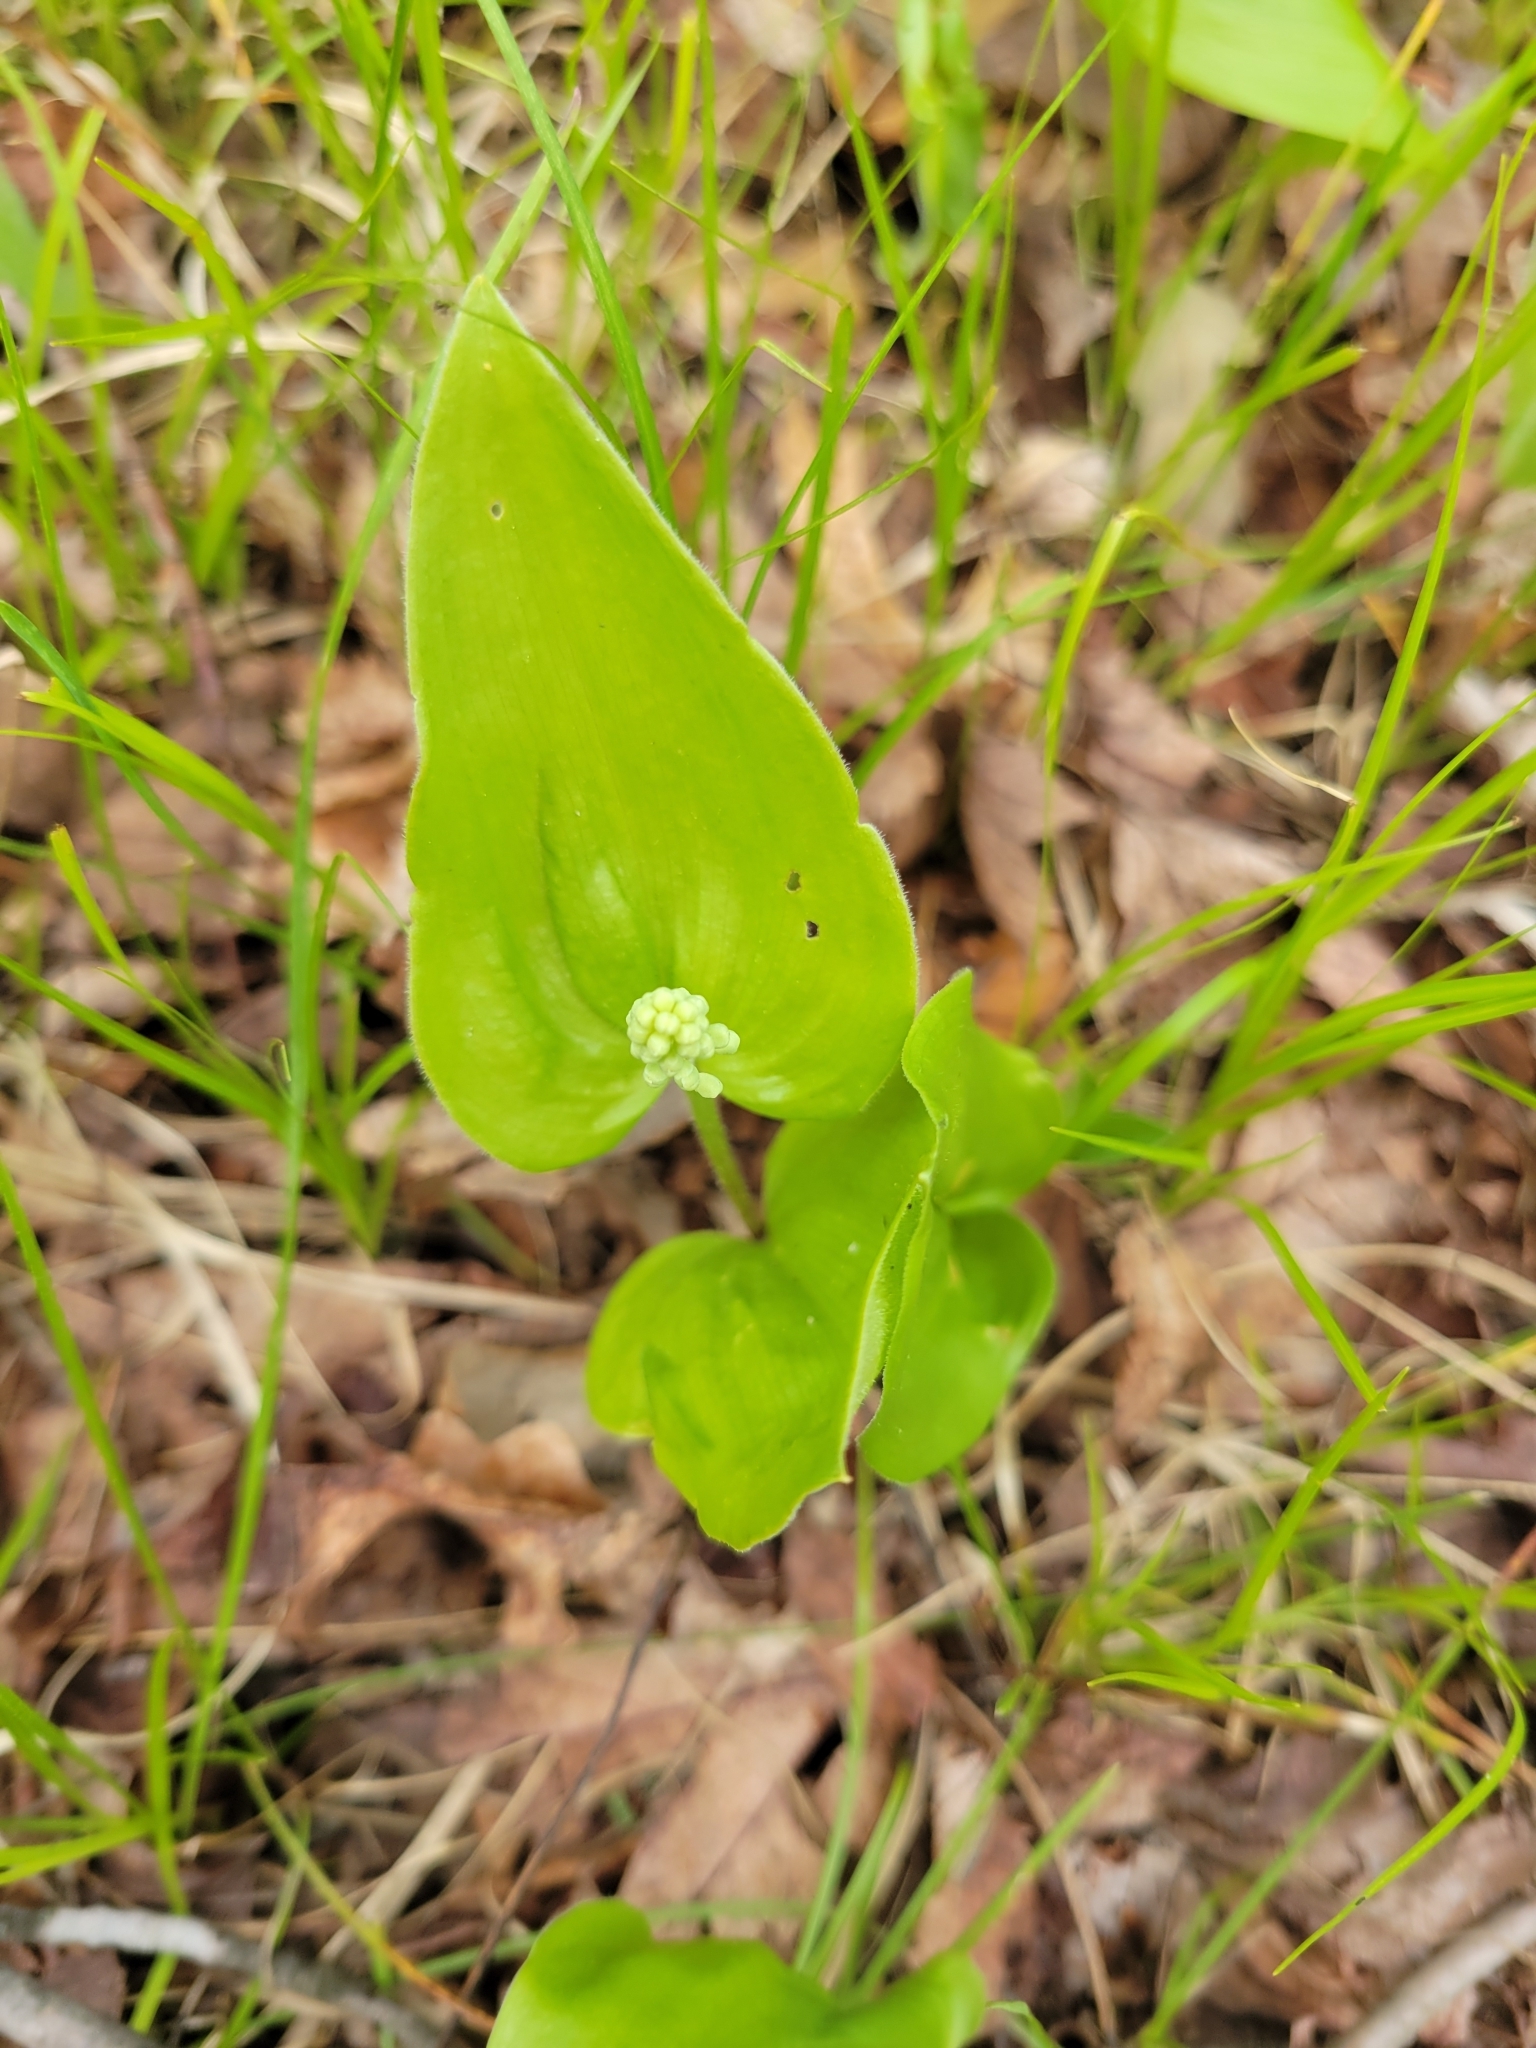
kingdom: Plantae
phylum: Tracheophyta
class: Liliopsida
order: Asparagales
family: Asparagaceae
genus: Maianthemum
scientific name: Maianthemum canadense
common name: False lily-of-the-valley
